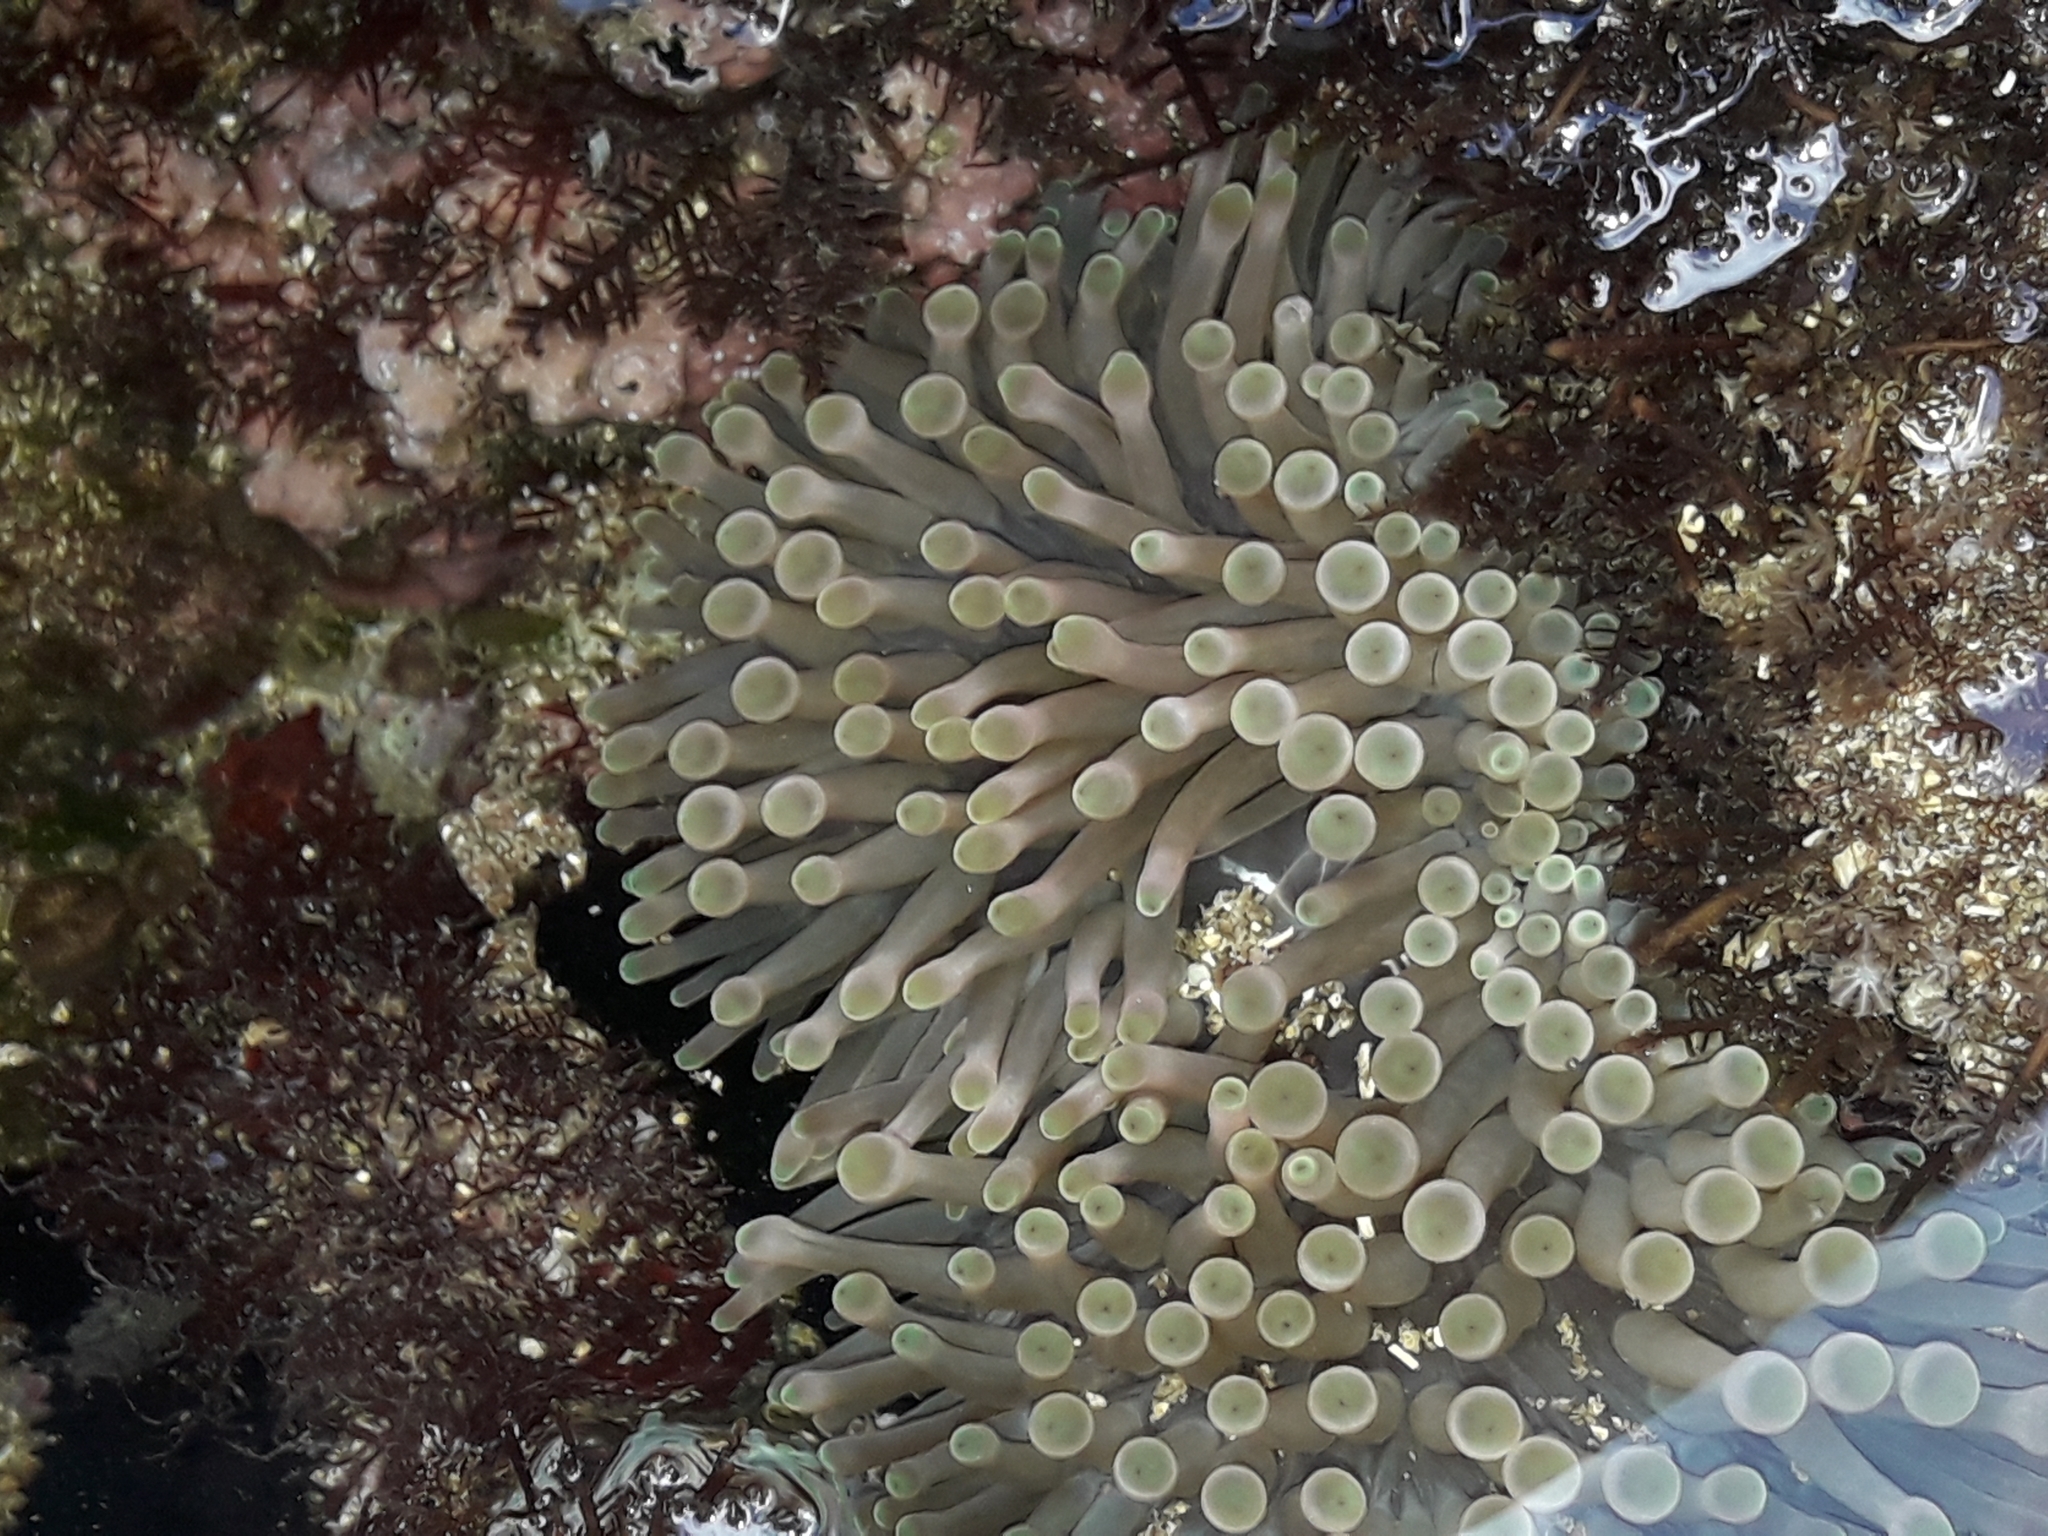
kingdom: Animalia
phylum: Cnidaria
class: Anthozoa
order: Actiniaria
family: Actiniidae
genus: Entacmaea
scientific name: Entacmaea quadricolor
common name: Bulb tentacle sea anemone
